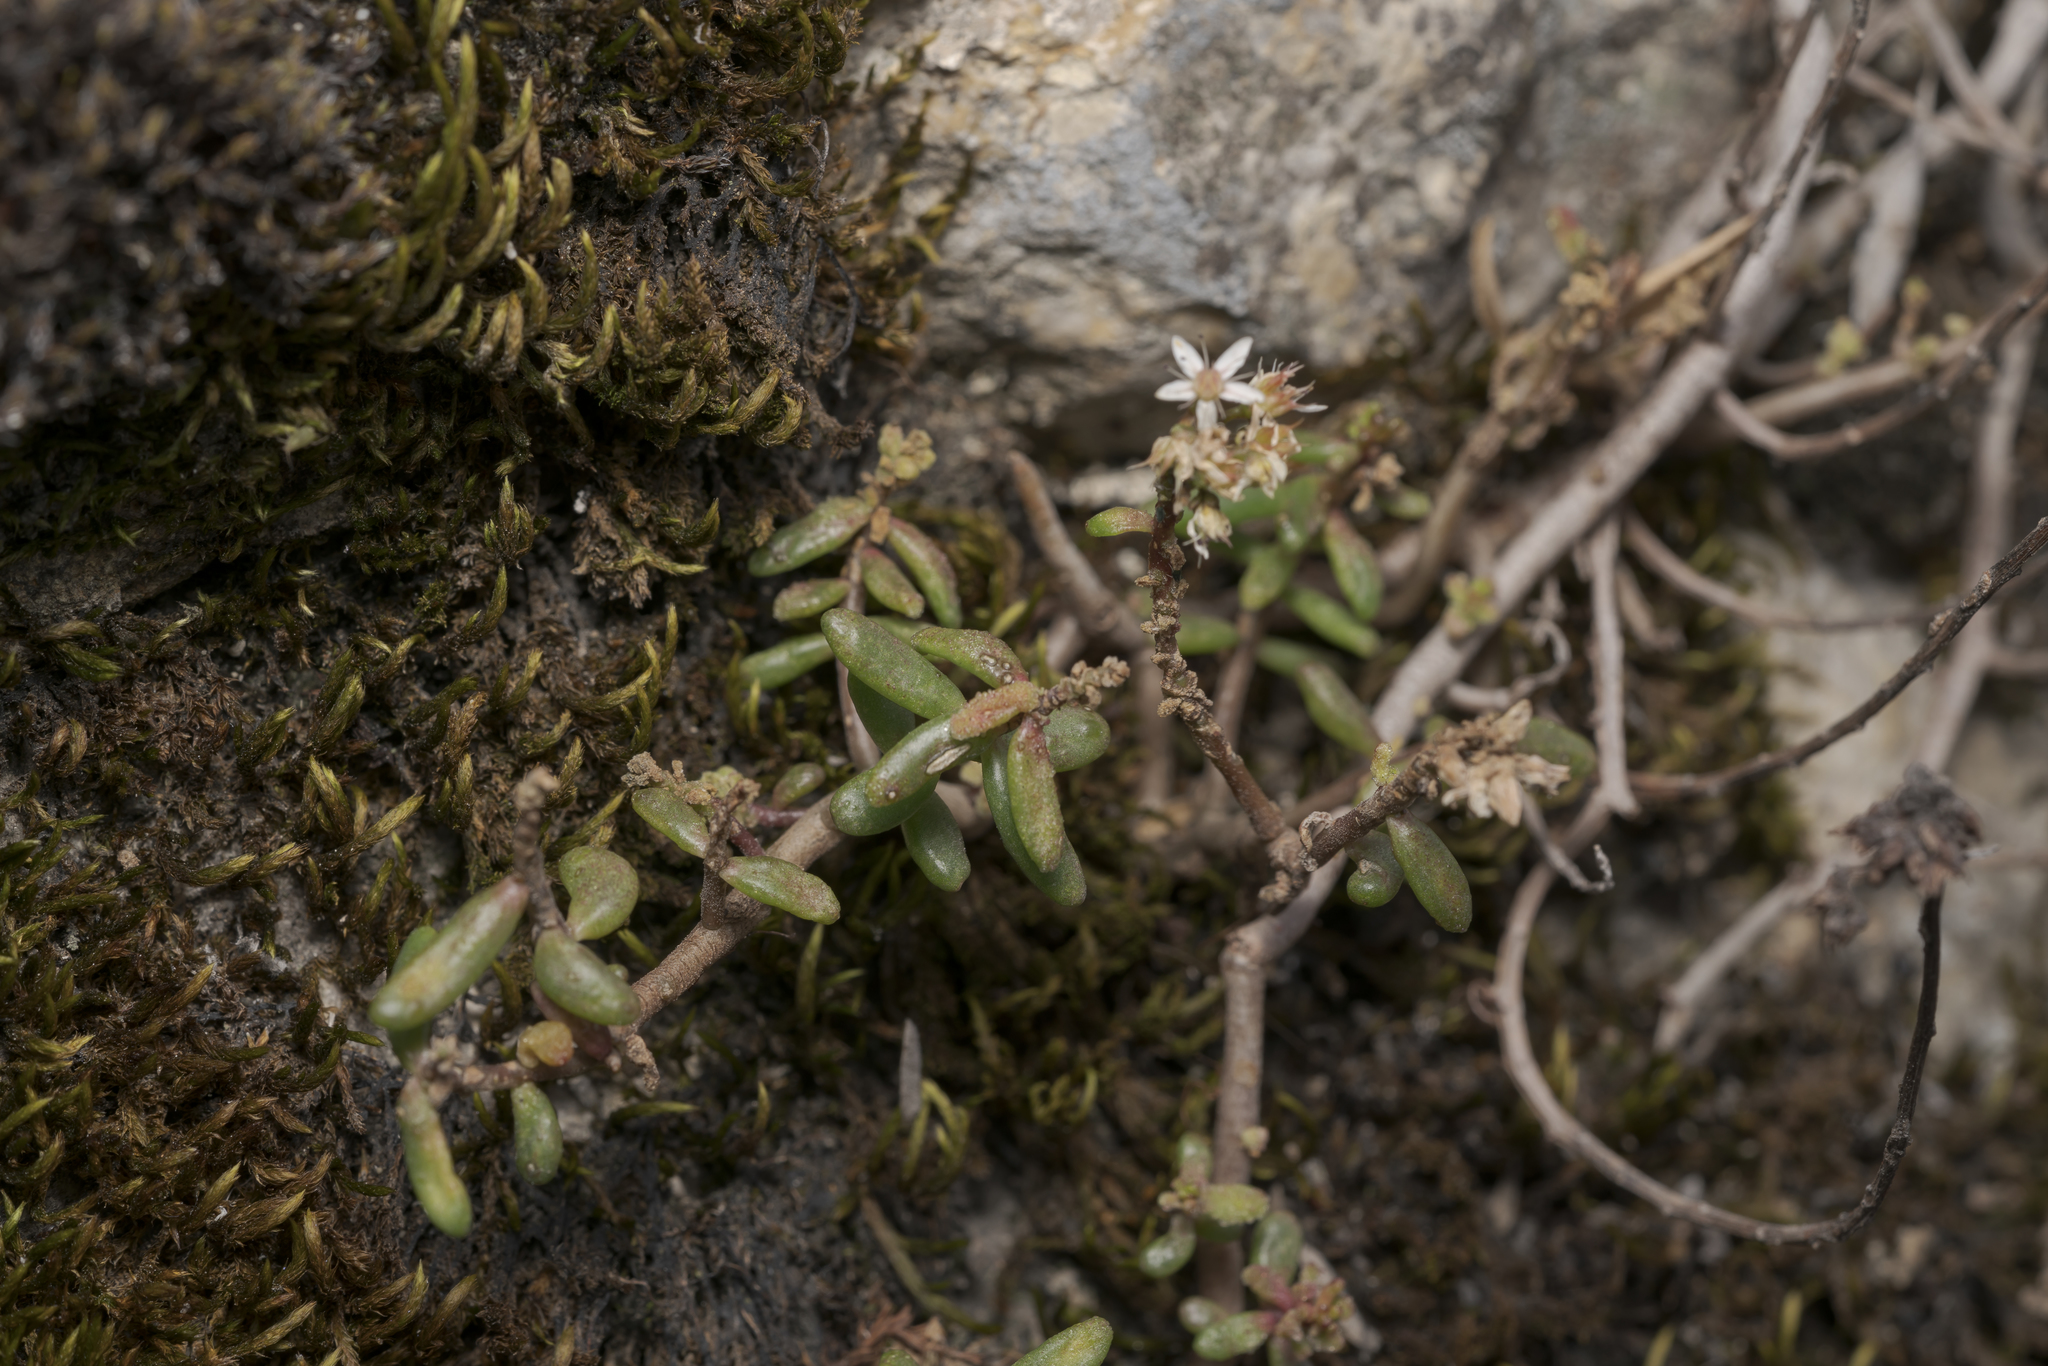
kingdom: Plantae
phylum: Tracheophyta
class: Magnoliopsida
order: Saxifragales
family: Crassulaceae
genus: Sedum
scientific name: Sedum album
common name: White stonecrop
